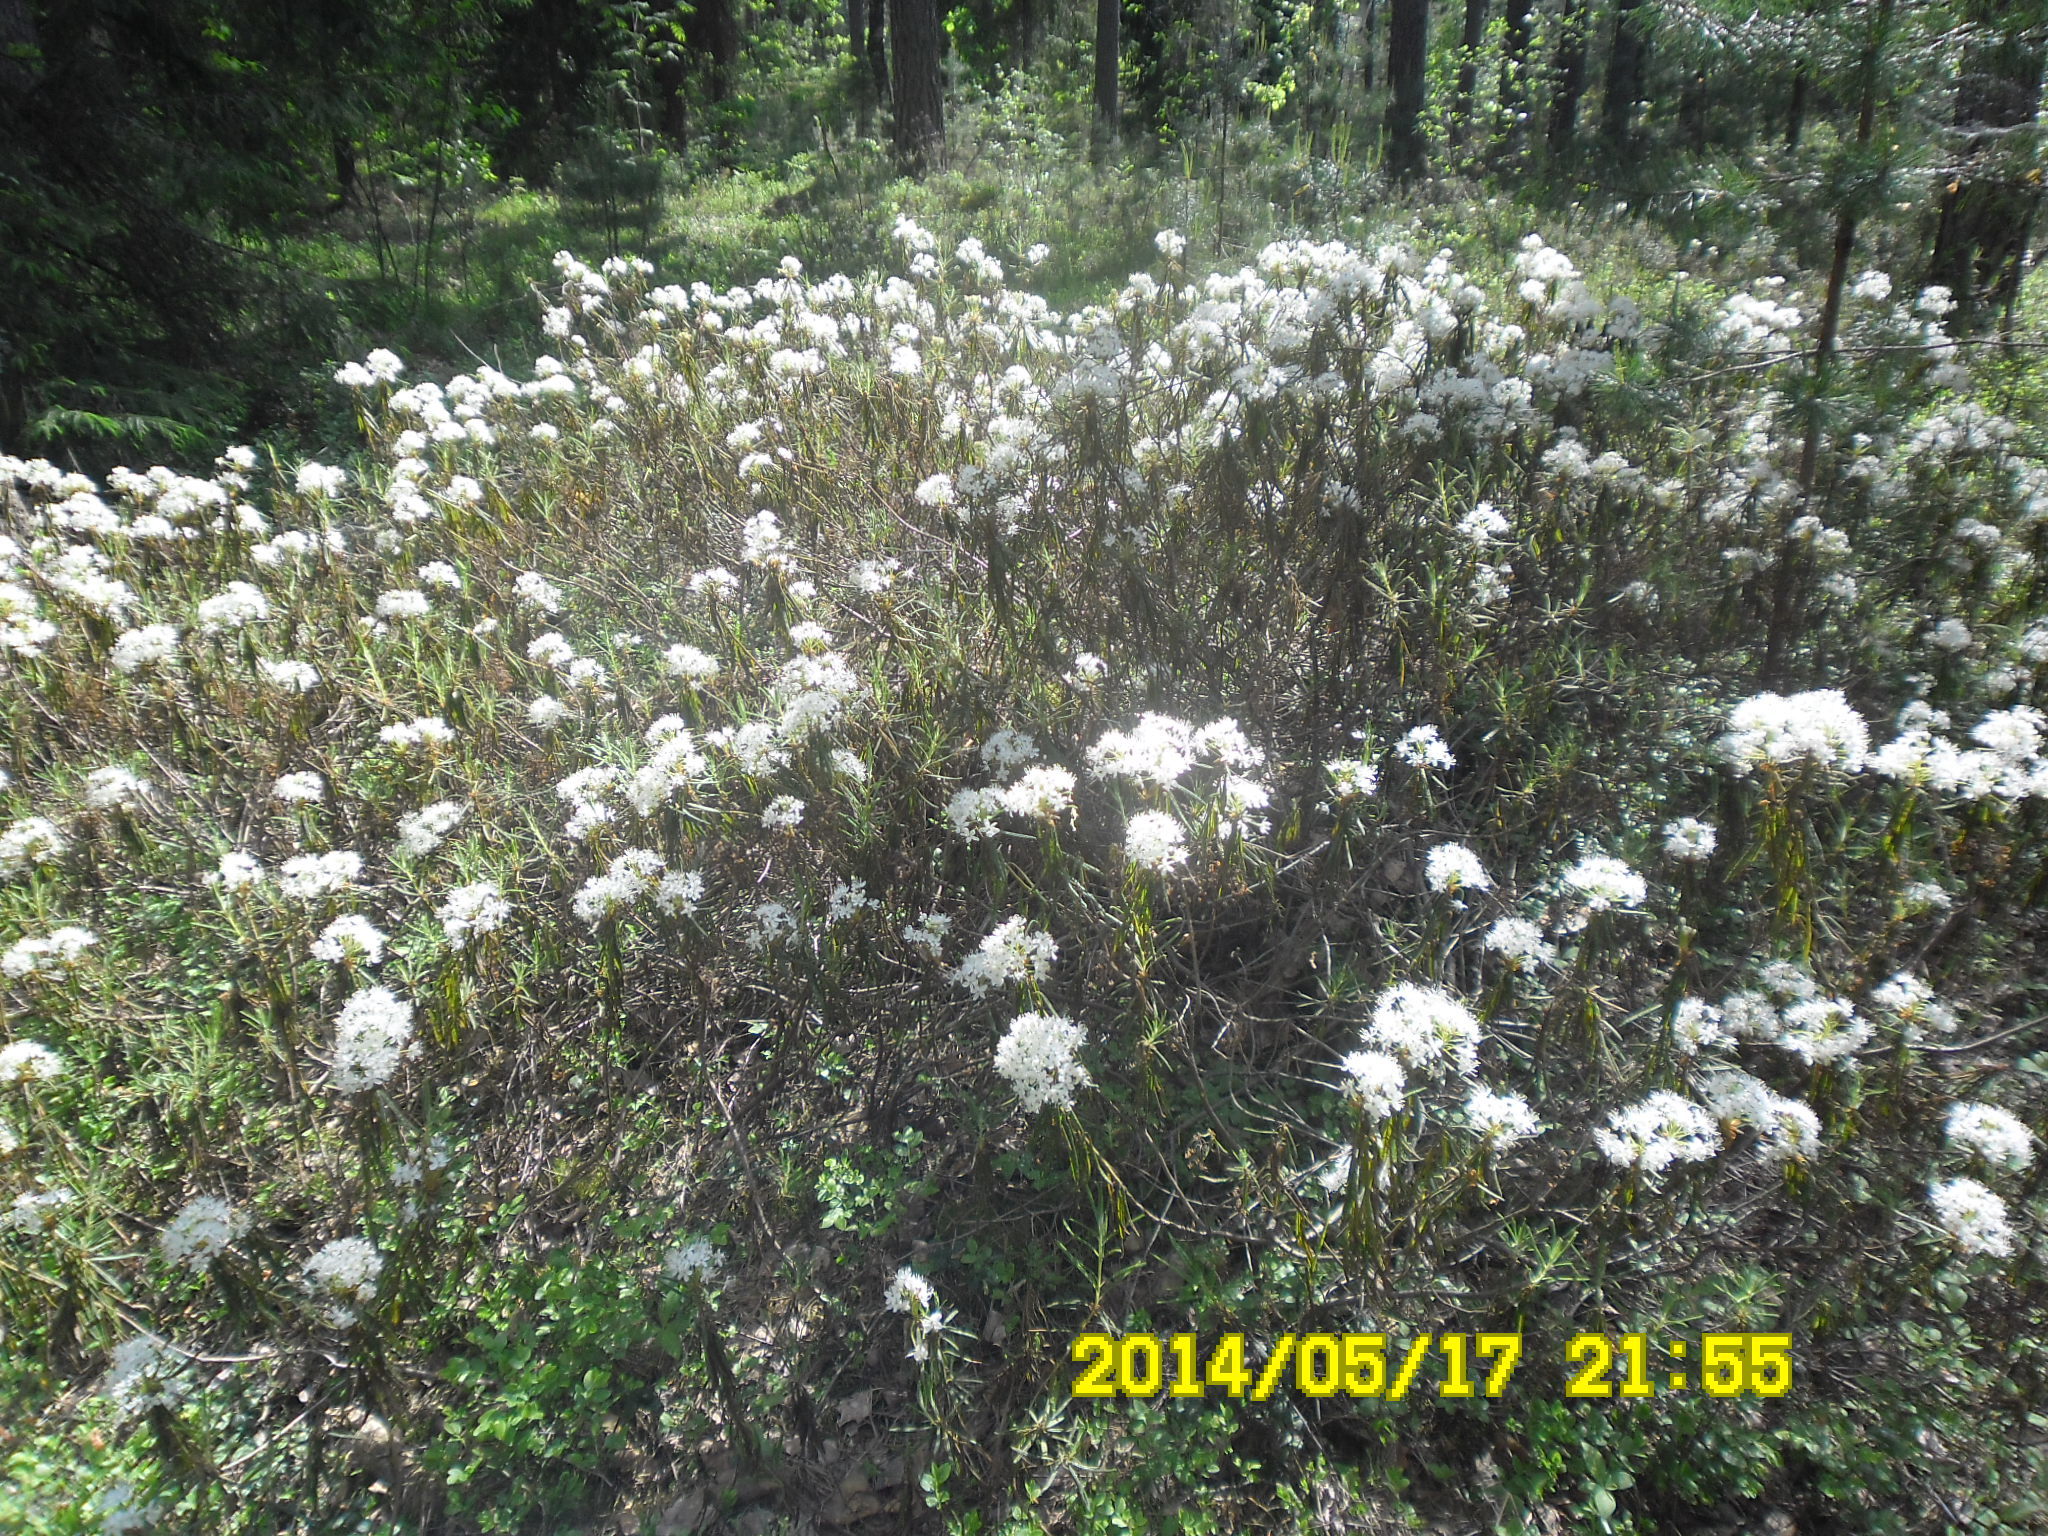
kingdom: Plantae
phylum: Tracheophyta
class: Magnoliopsida
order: Ericales
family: Ericaceae
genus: Rhododendron
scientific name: Rhododendron tomentosum
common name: Marsh labrador tea
